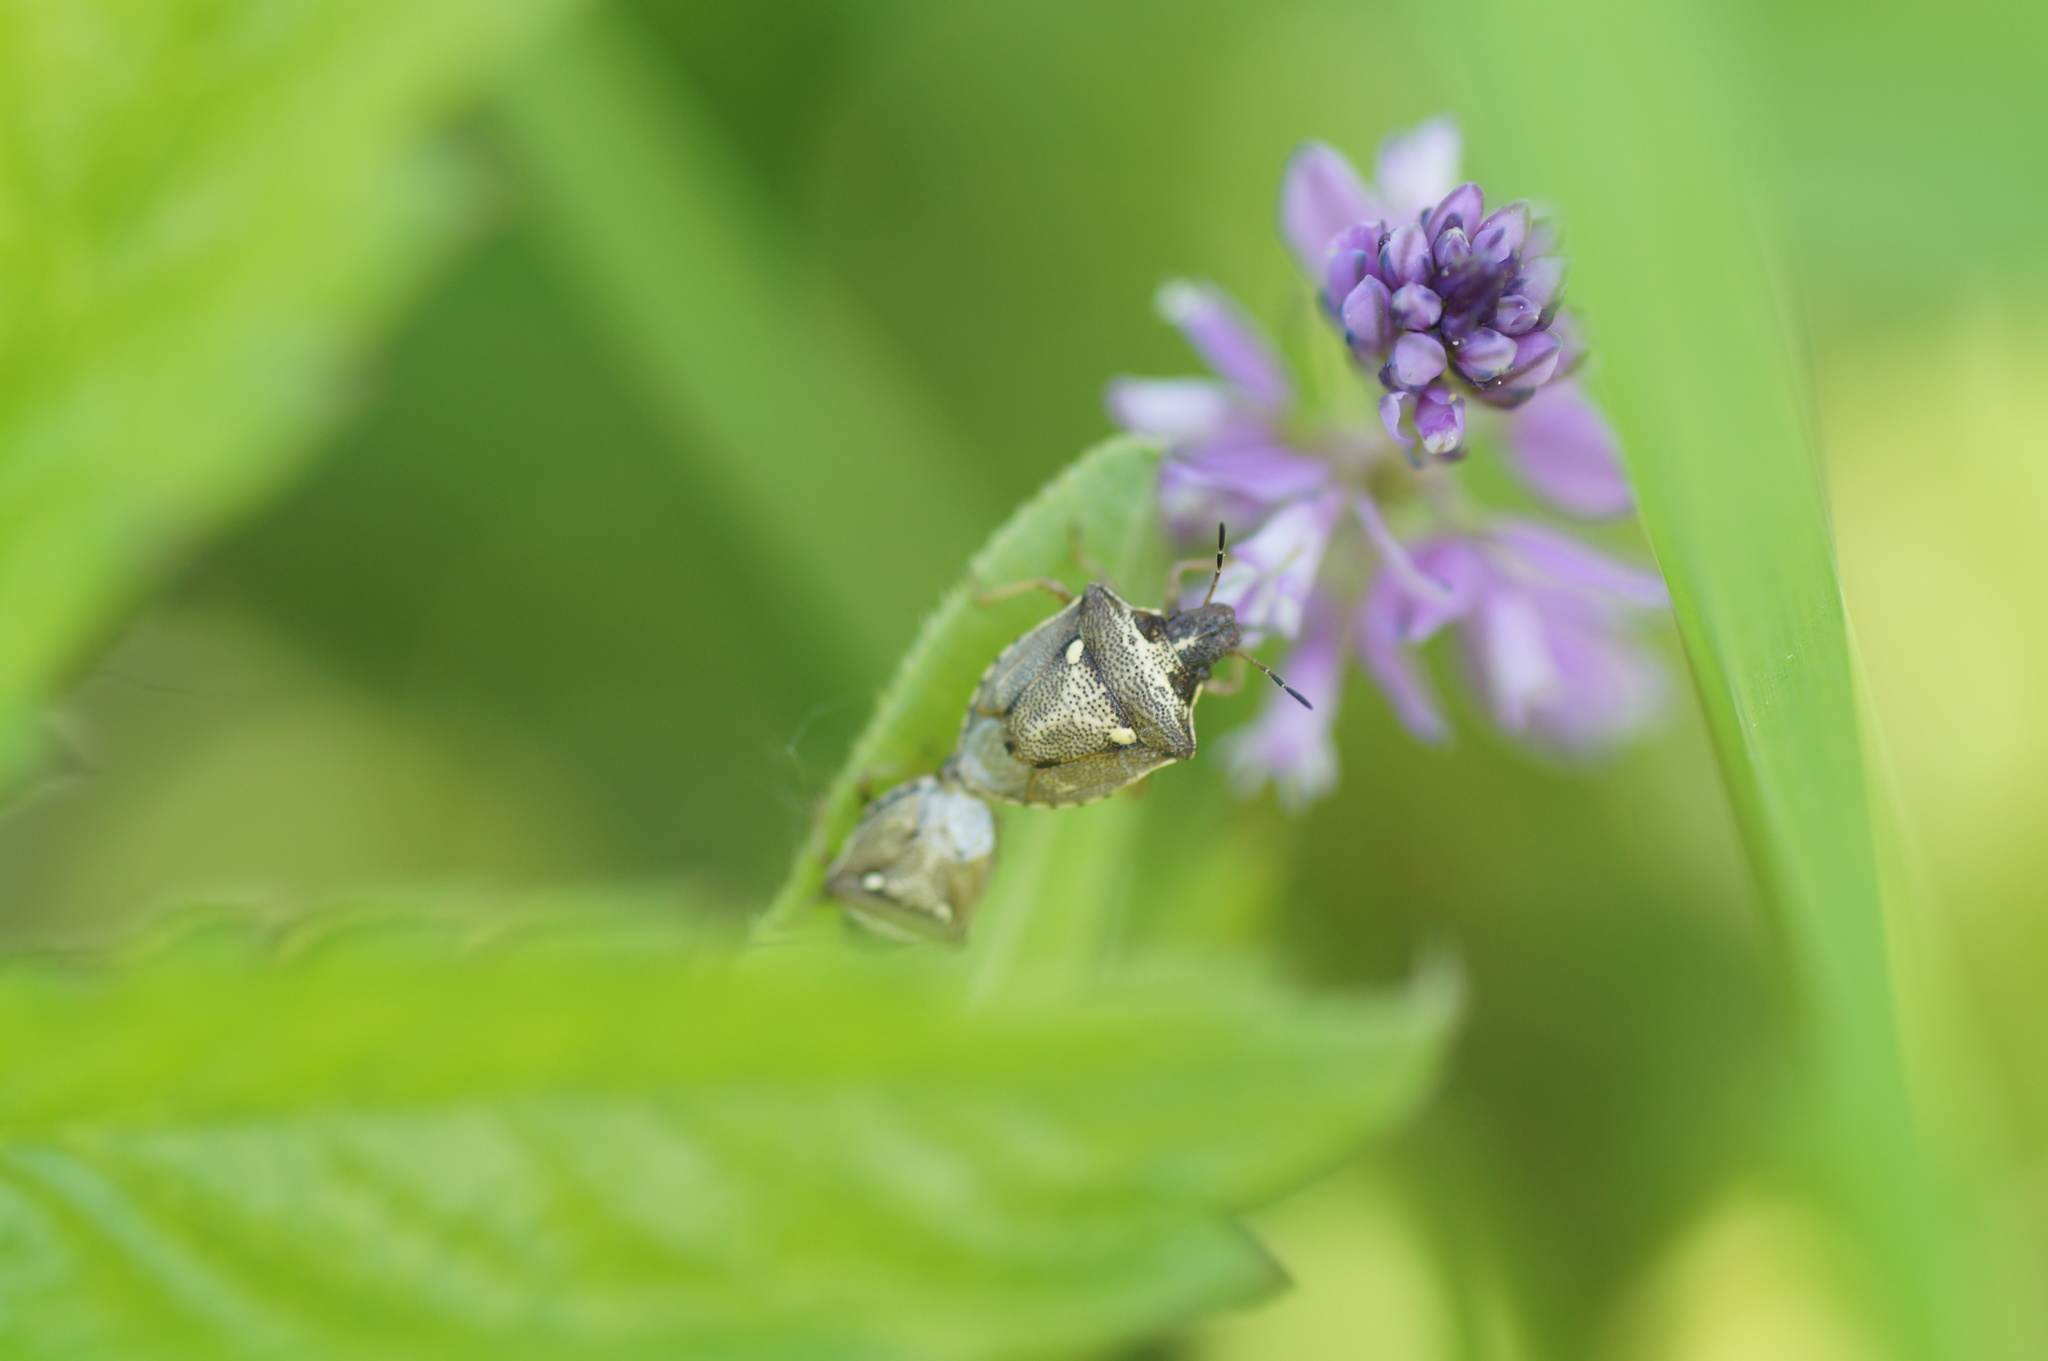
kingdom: Animalia
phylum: Arthropoda
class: Insecta
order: Hemiptera
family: Pentatomidae
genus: Eysarcoris
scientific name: Eysarcoris aeneus
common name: New forest shieldbug
